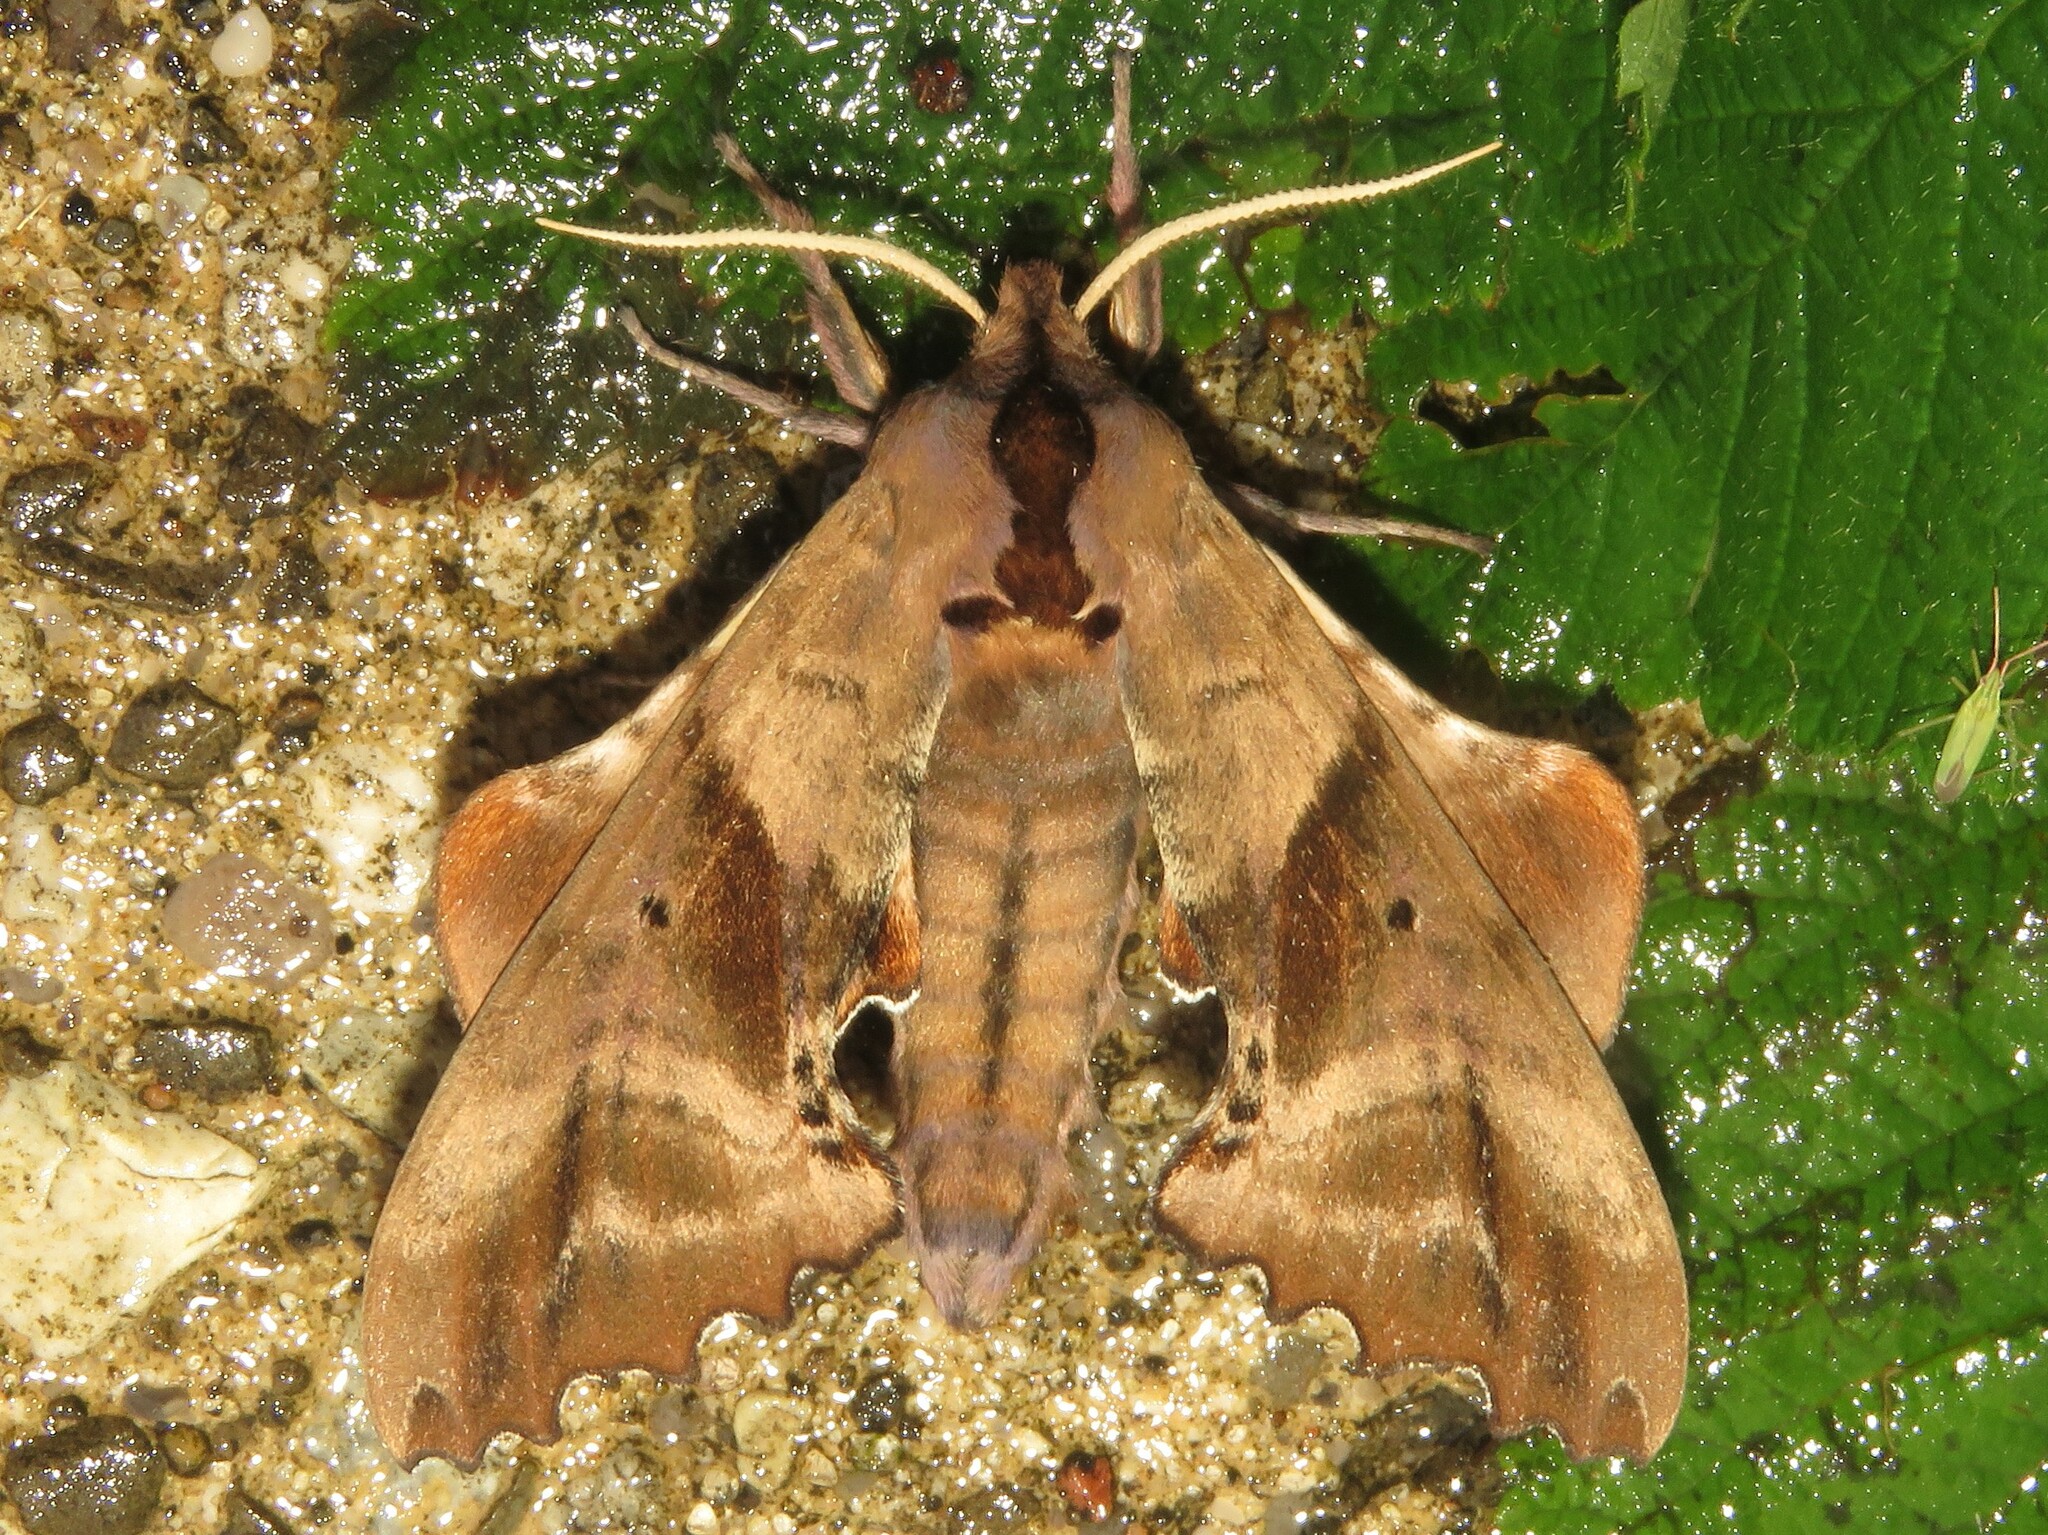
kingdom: Animalia
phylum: Arthropoda
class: Insecta
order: Lepidoptera
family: Sphingidae
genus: Paonias
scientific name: Paonias excaecata
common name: Blind-eyed sphinx
